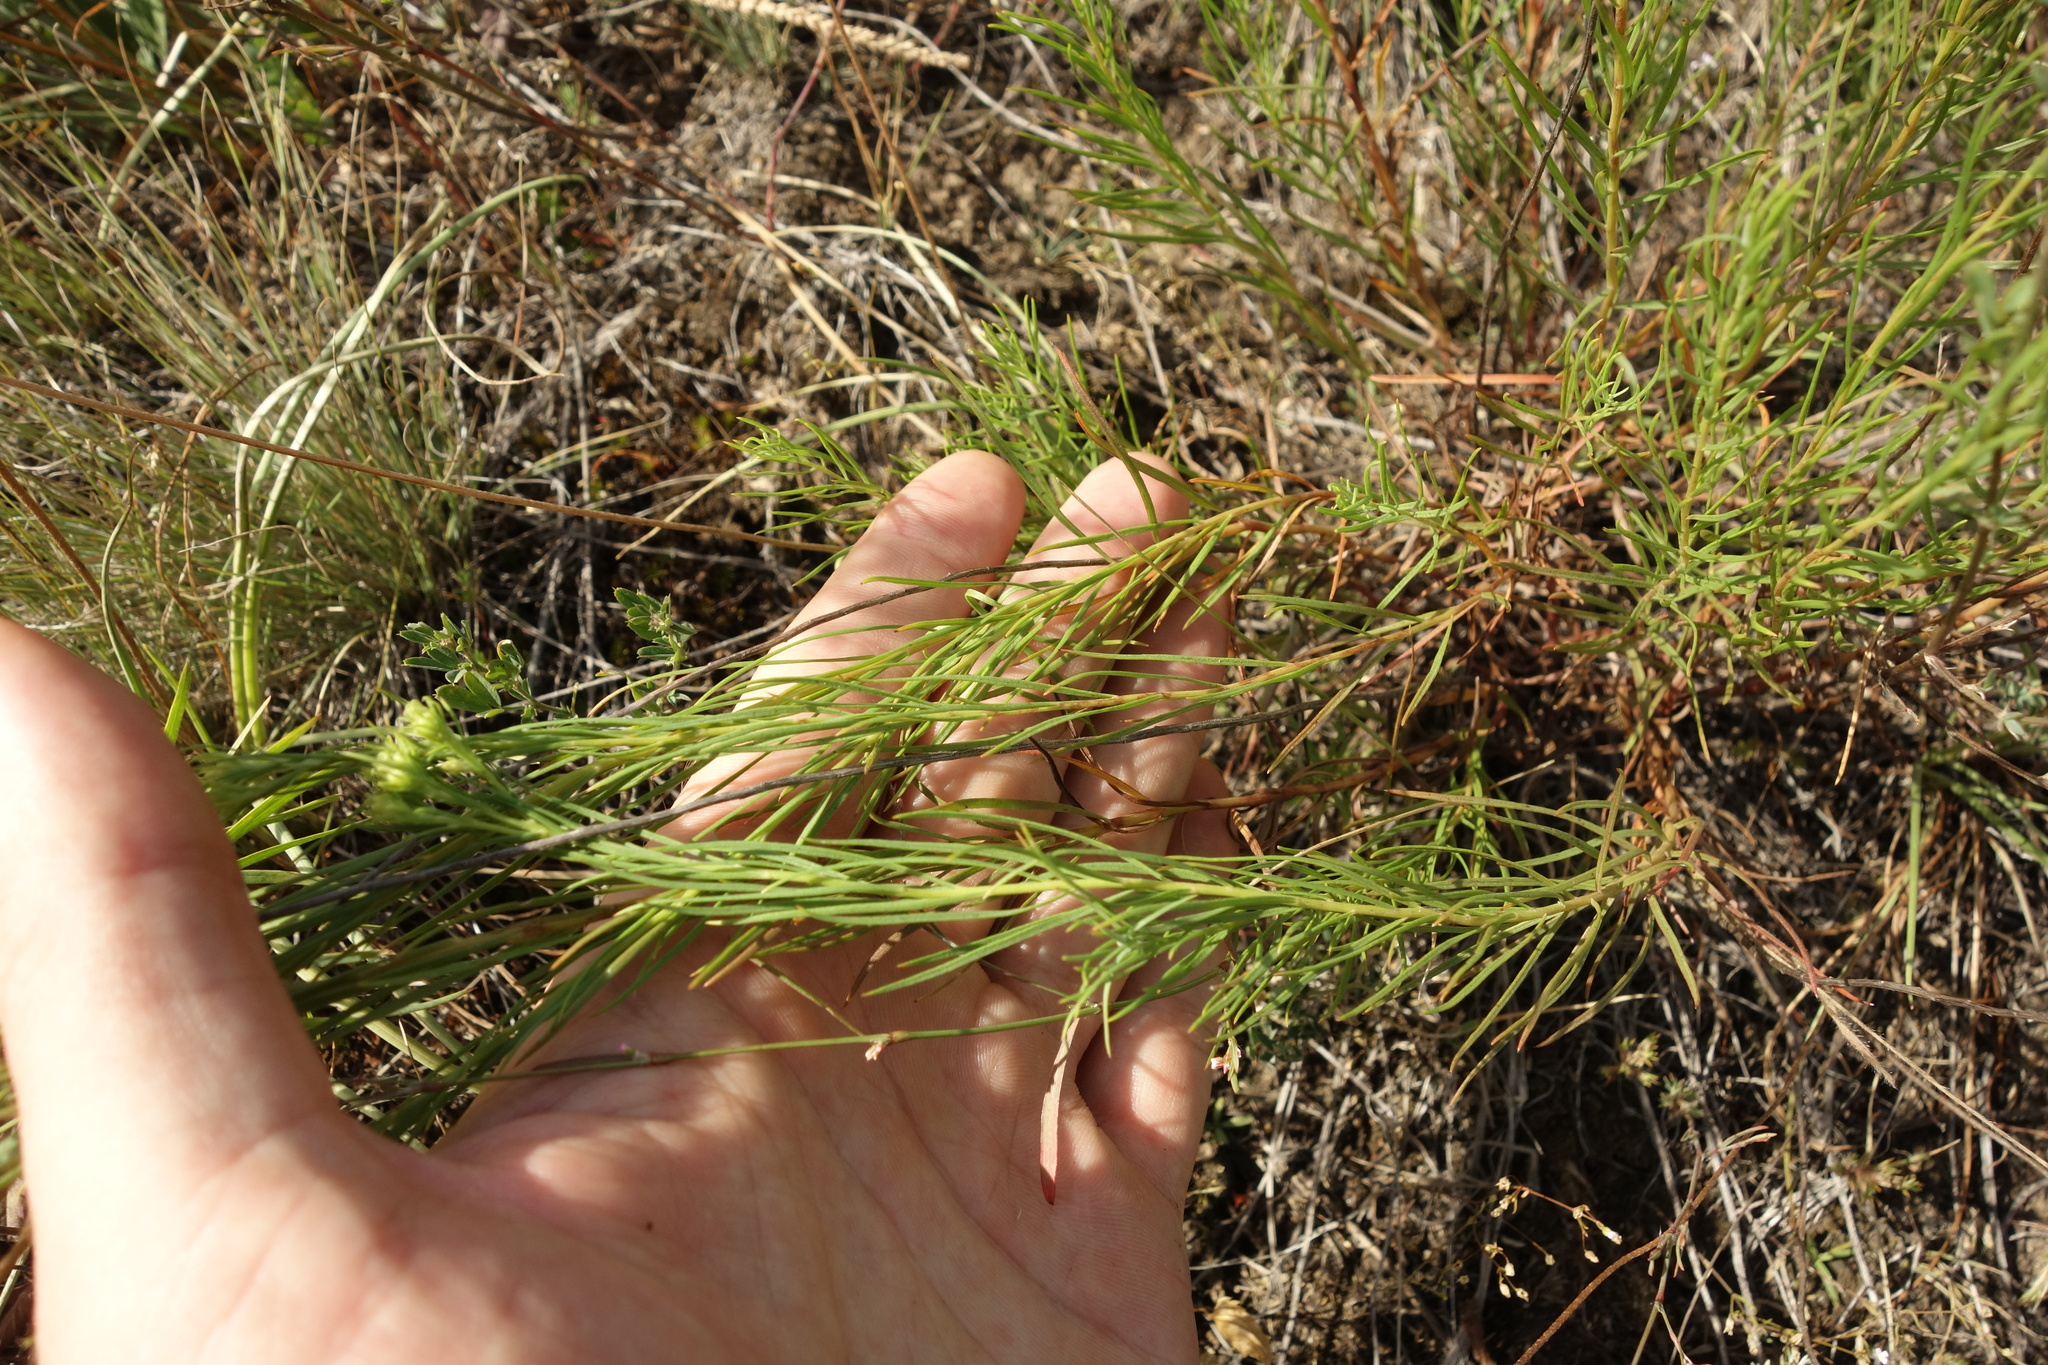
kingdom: Plantae
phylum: Tracheophyta
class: Magnoliopsida
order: Asterales
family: Asteraceae
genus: Galatella
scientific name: Galatella linosyris
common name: Goldilocks aster
